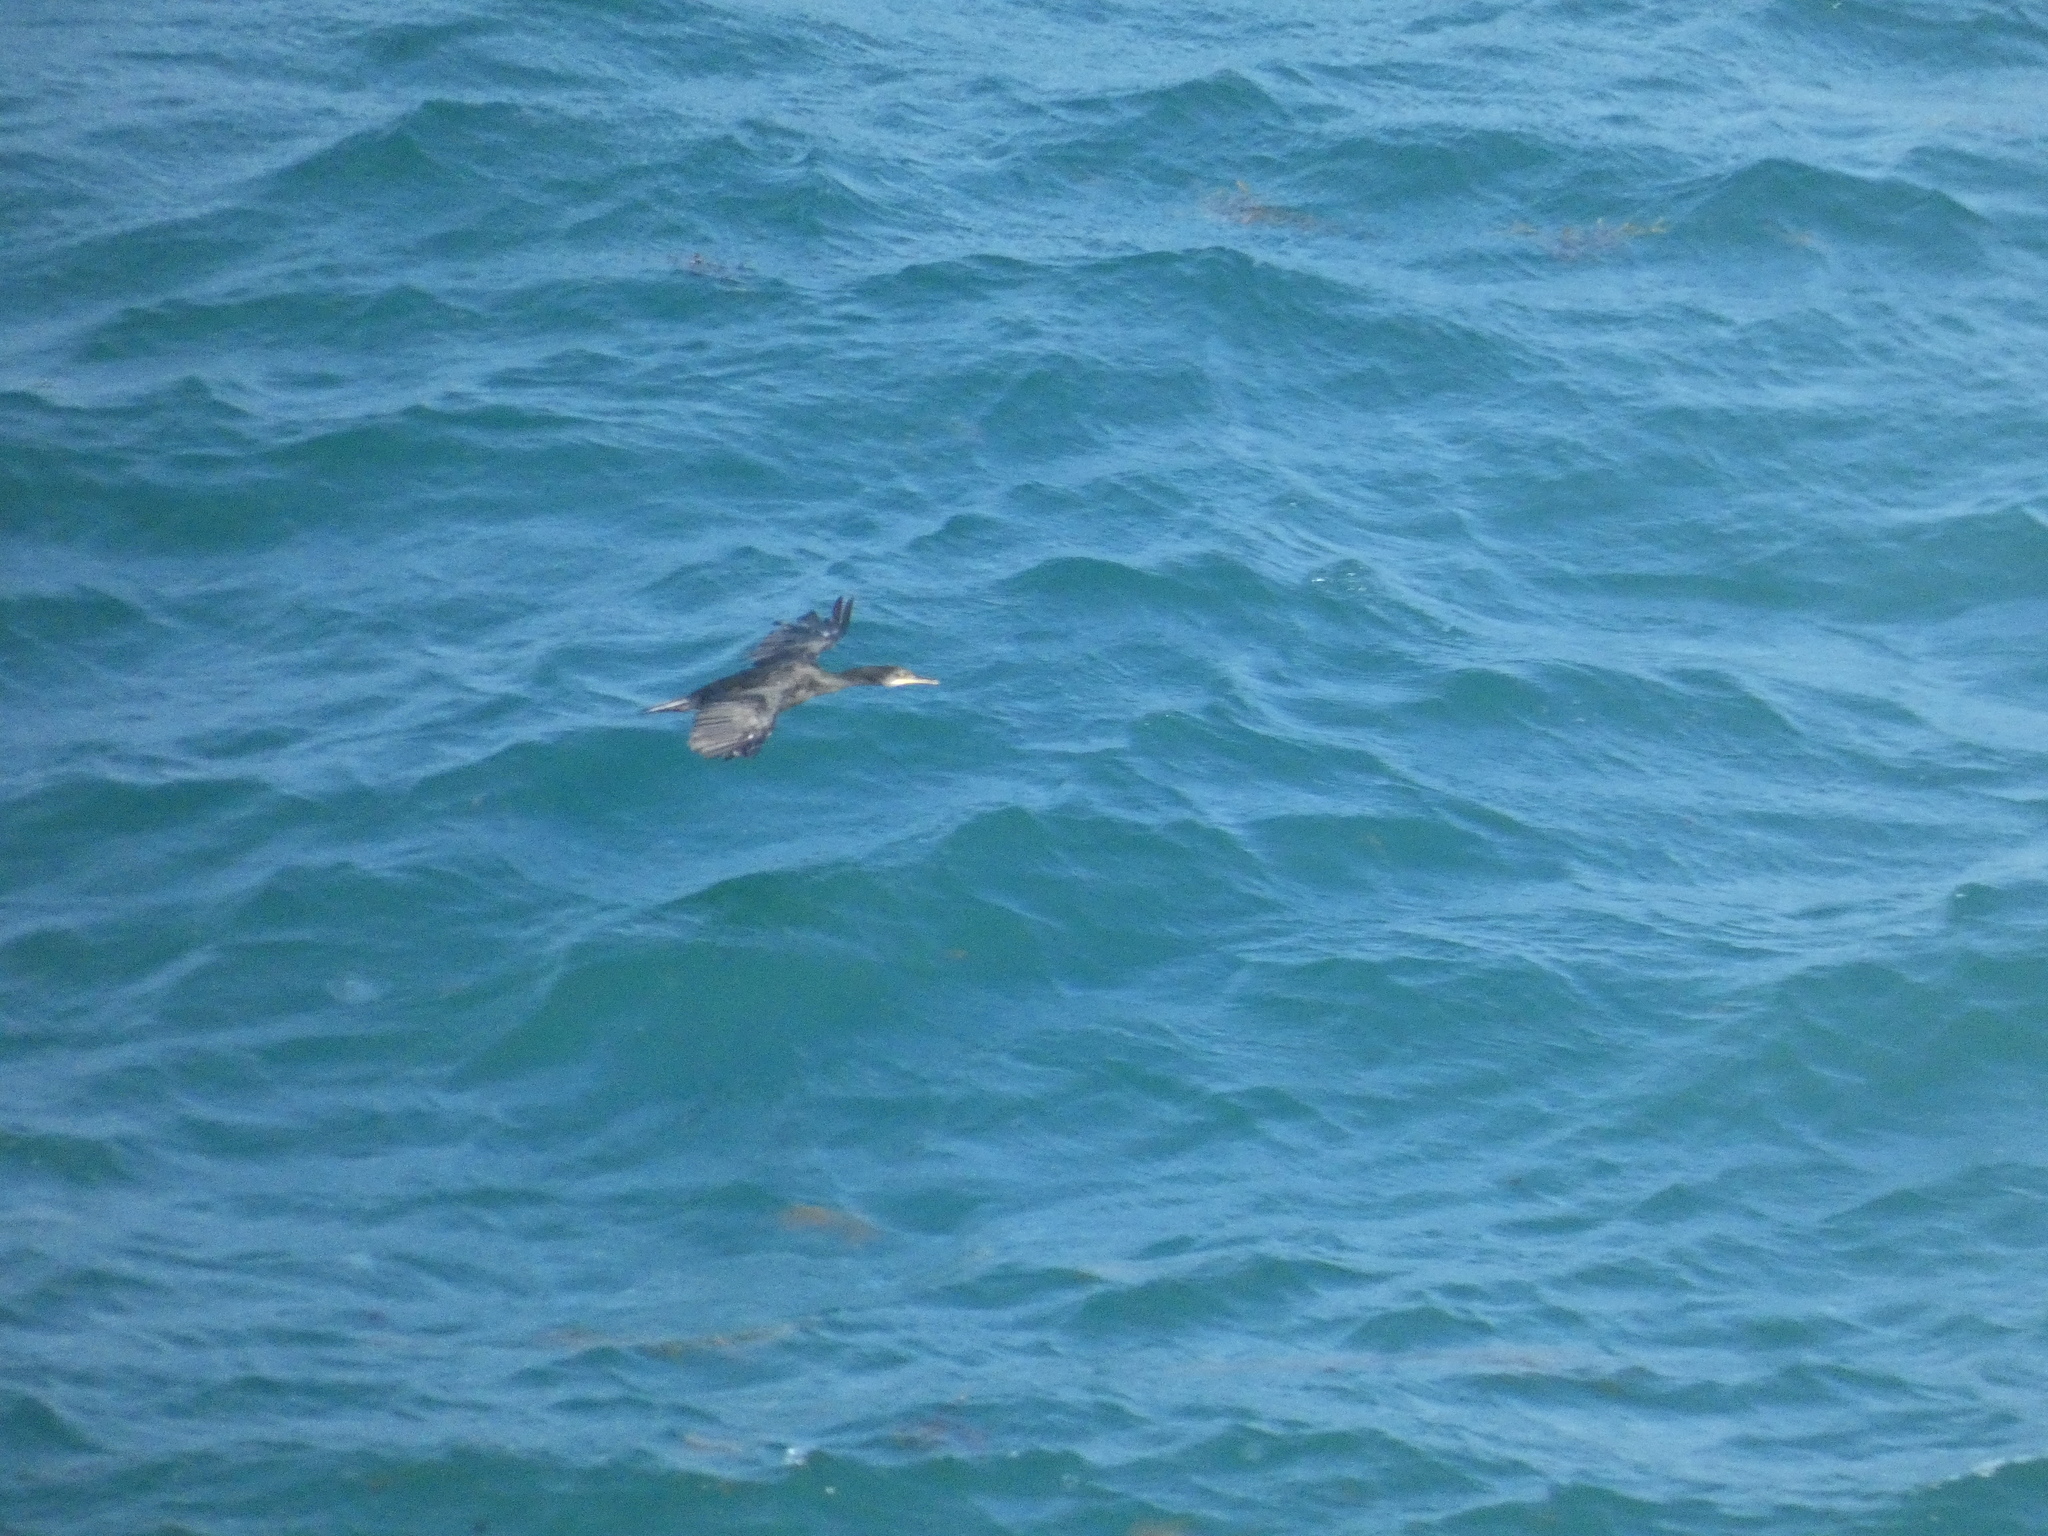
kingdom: Animalia
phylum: Chordata
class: Aves
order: Suliformes
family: Phalacrocoracidae
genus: Phalacrocorax
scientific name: Phalacrocorax aristotelis
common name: European shag
